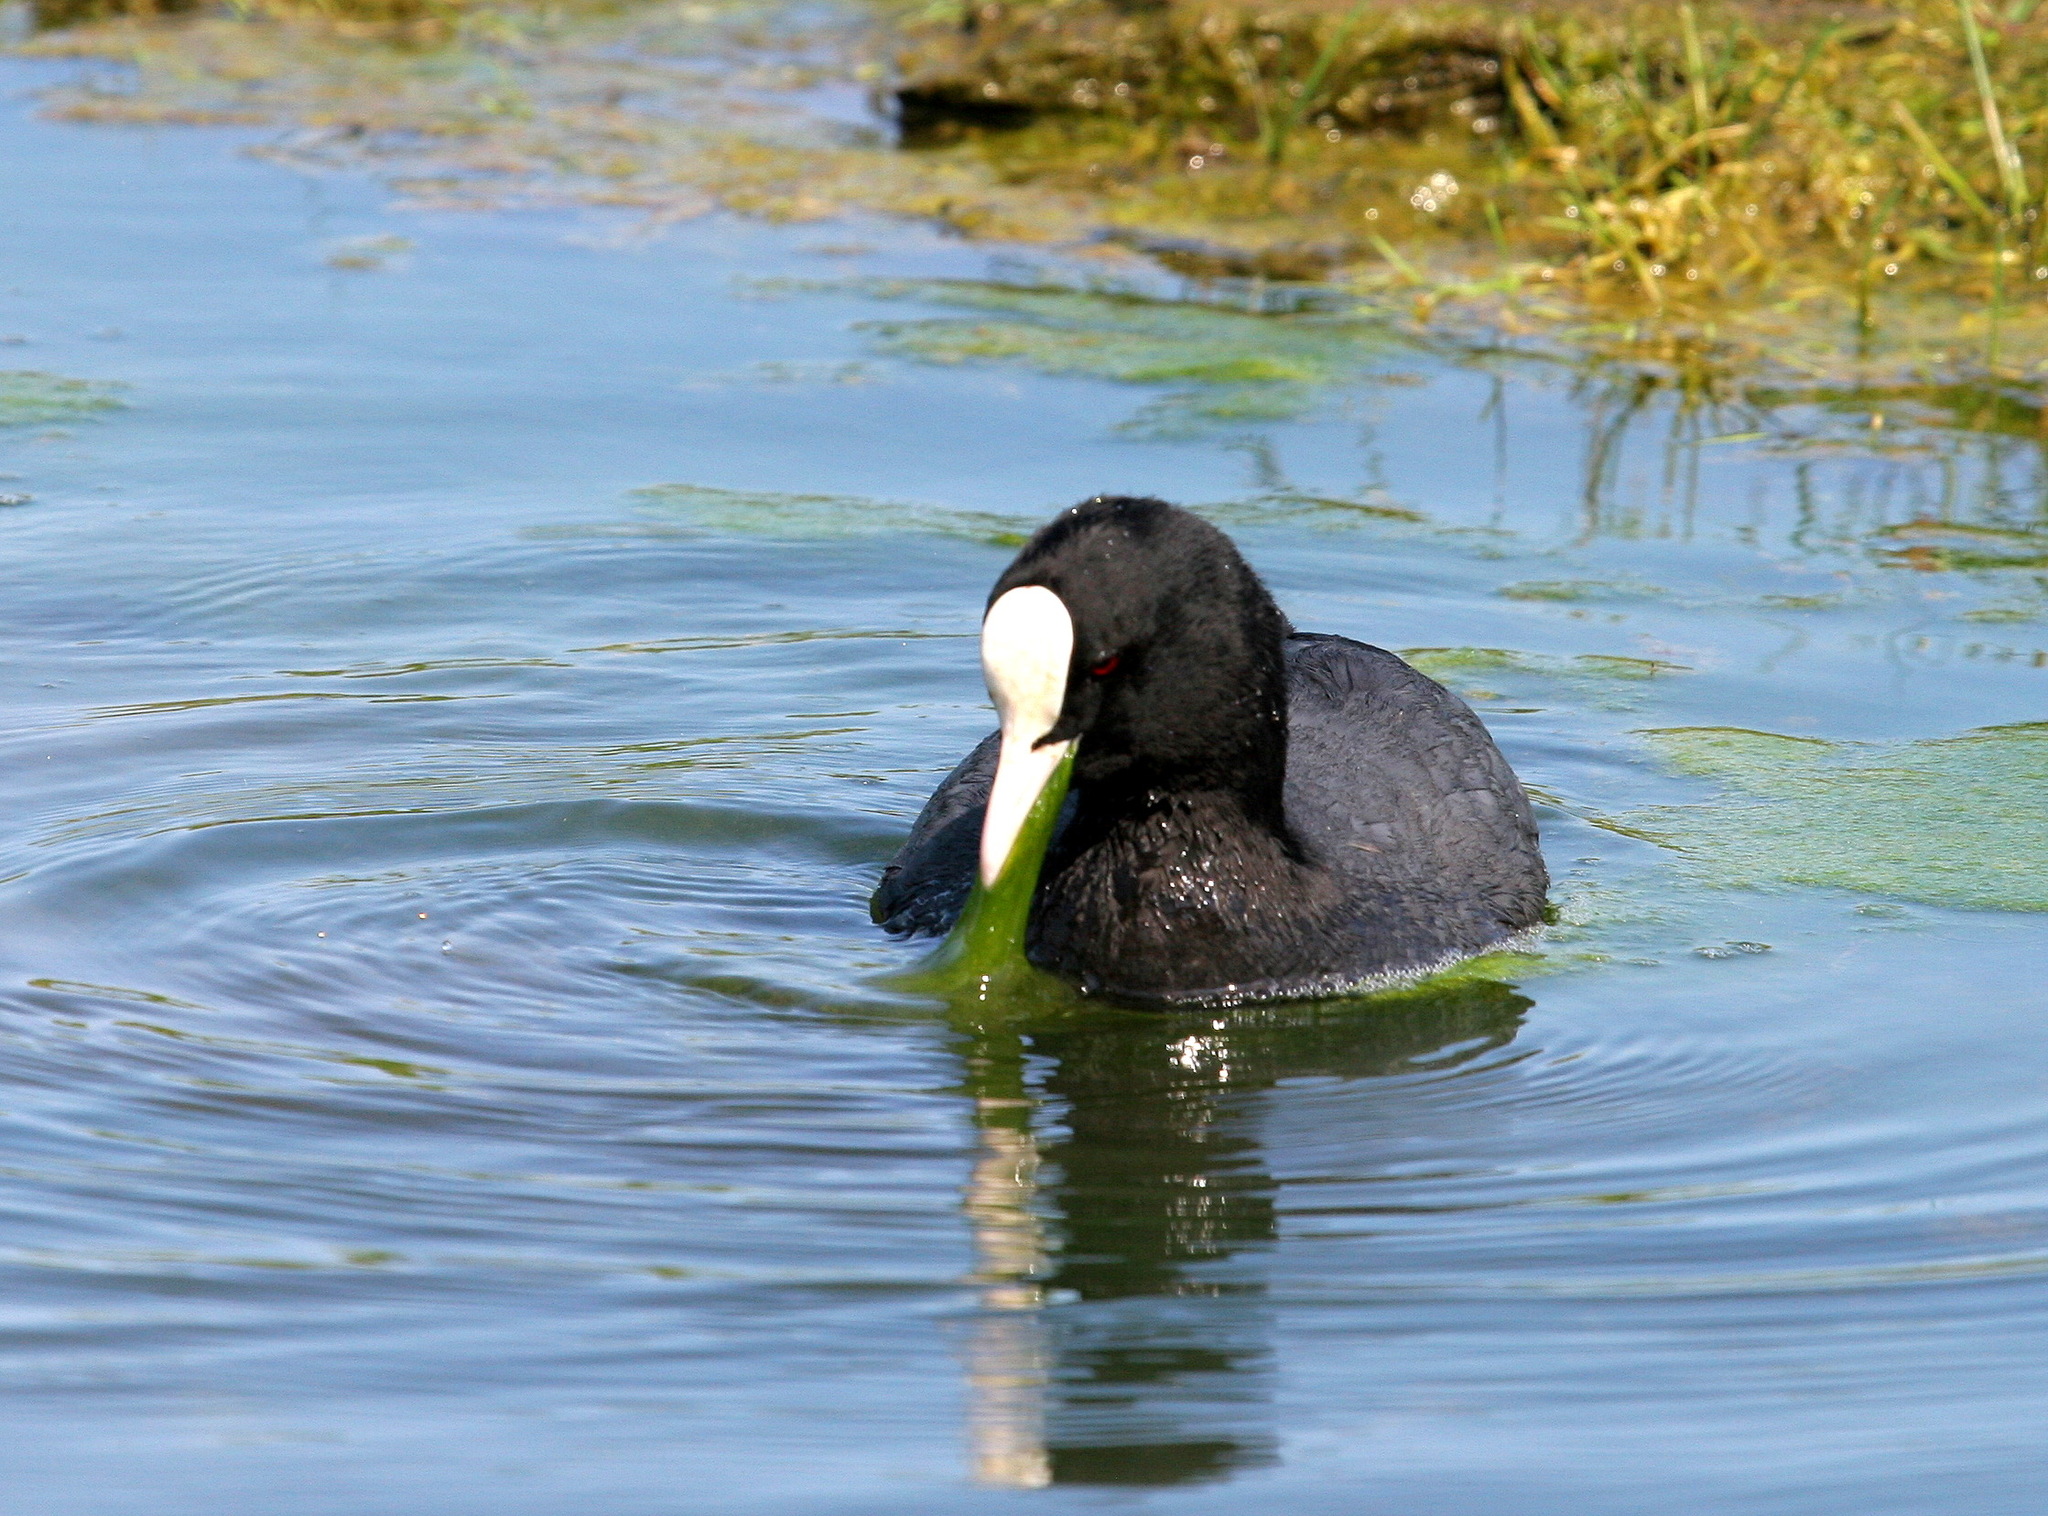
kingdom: Animalia
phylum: Chordata
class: Aves
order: Gruiformes
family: Rallidae
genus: Fulica
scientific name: Fulica atra
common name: Eurasian coot
